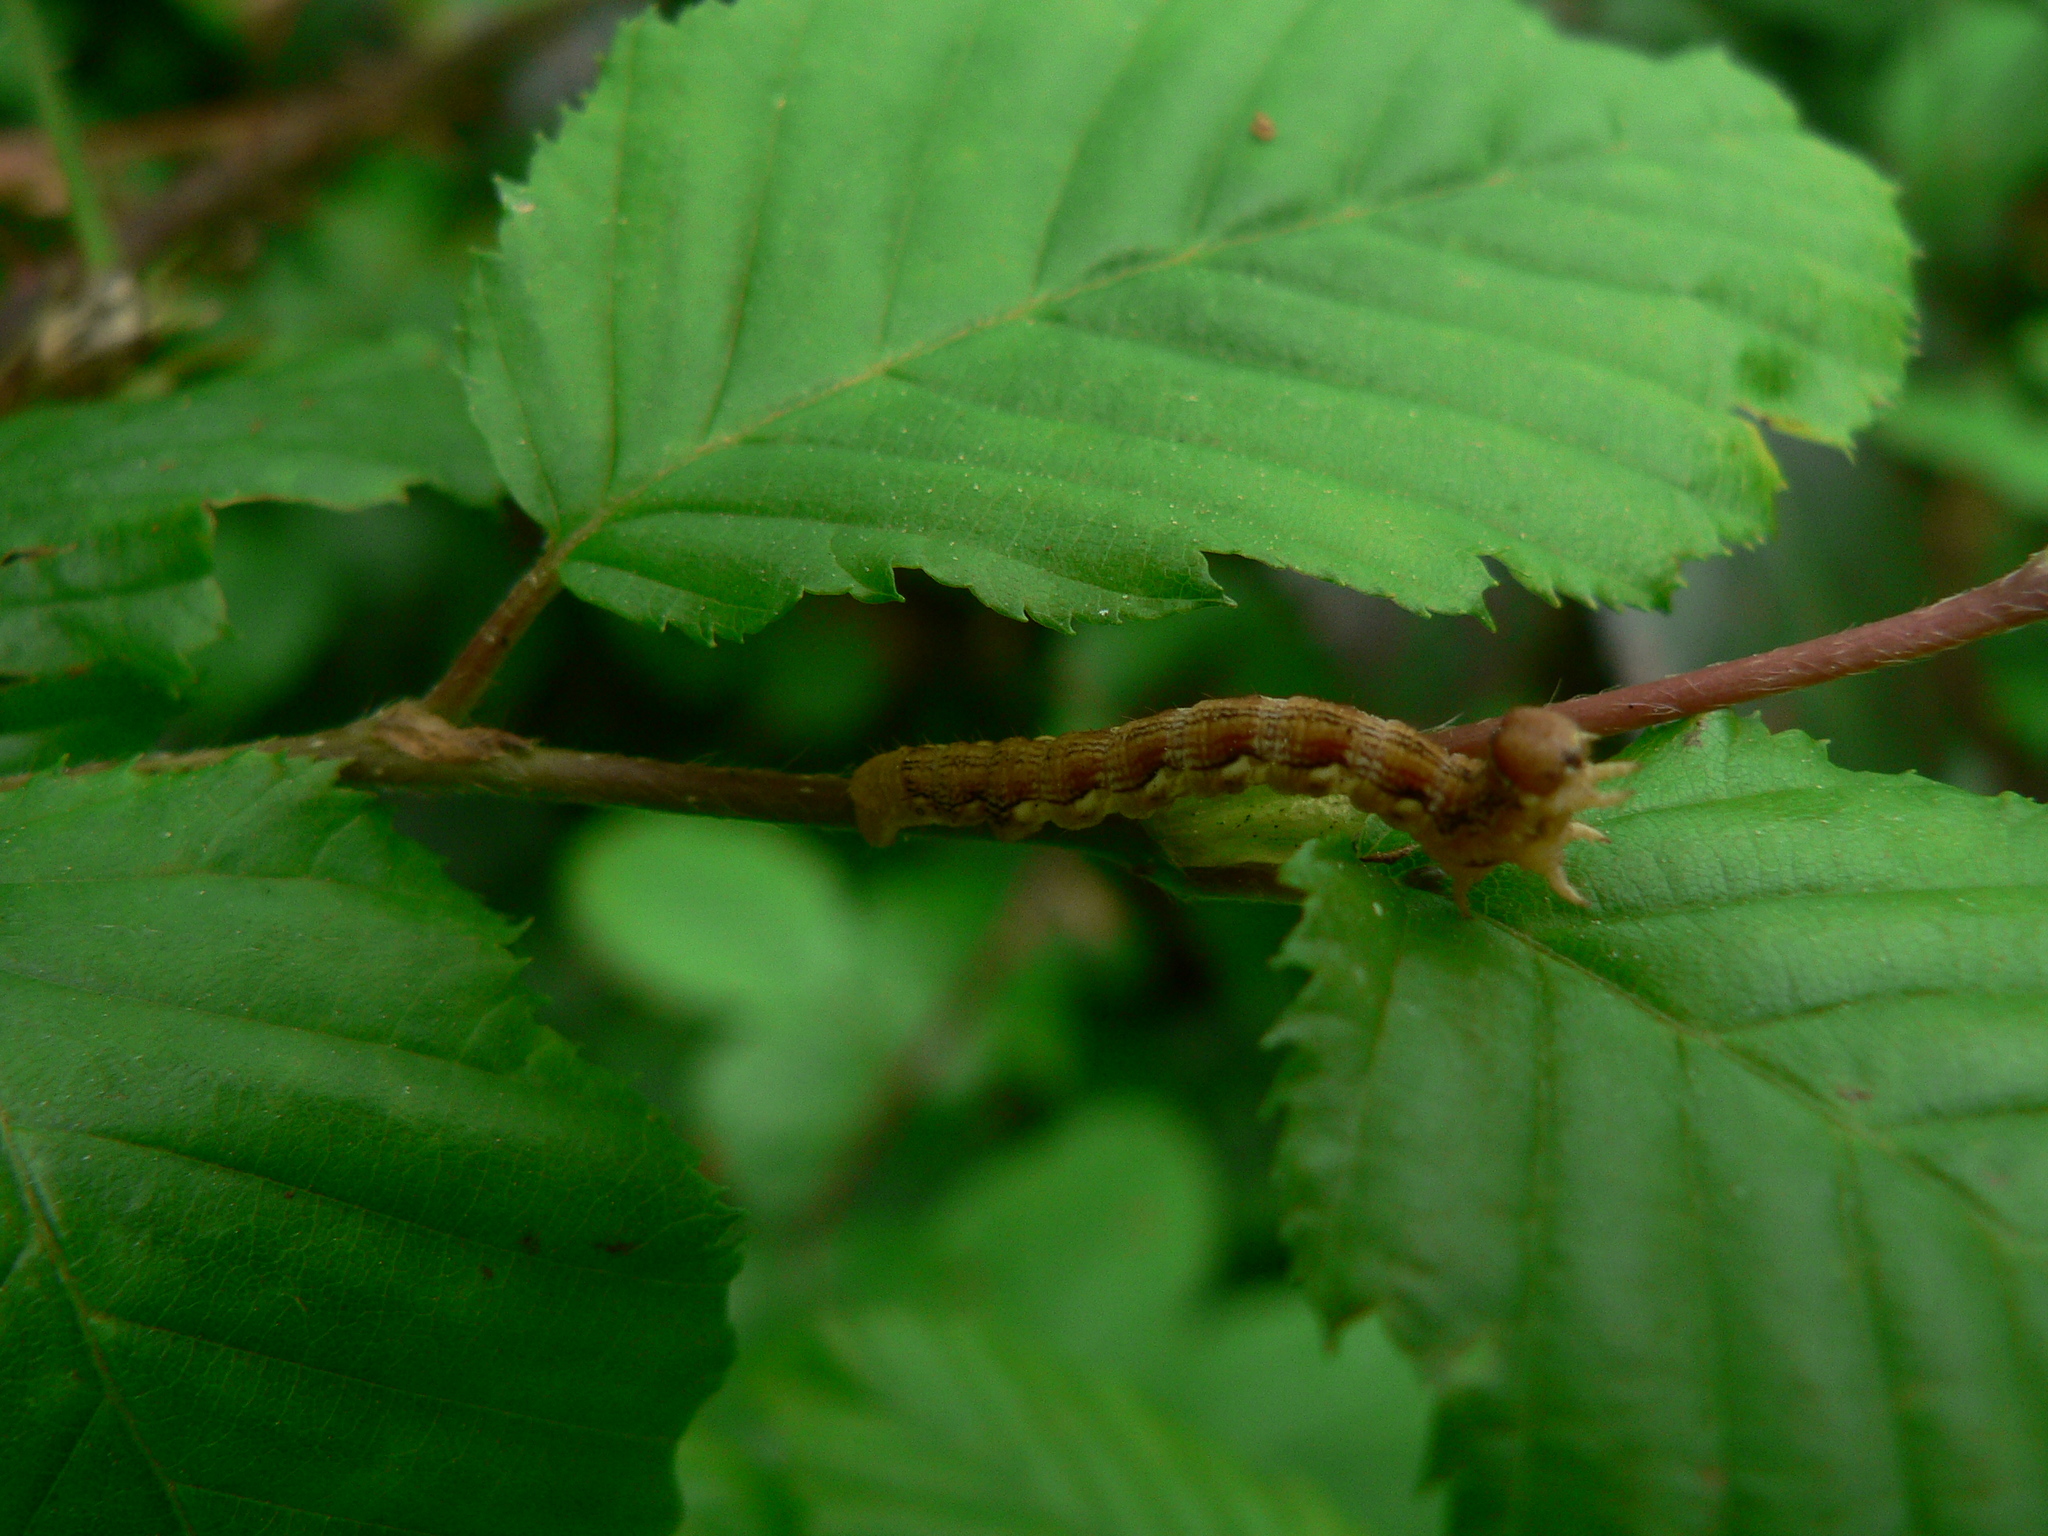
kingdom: Animalia
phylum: Arthropoda
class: Insecta
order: Lepidoptera
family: Geometridae
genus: Erannis
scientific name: Erannis defoliaria
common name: Mottled umber
